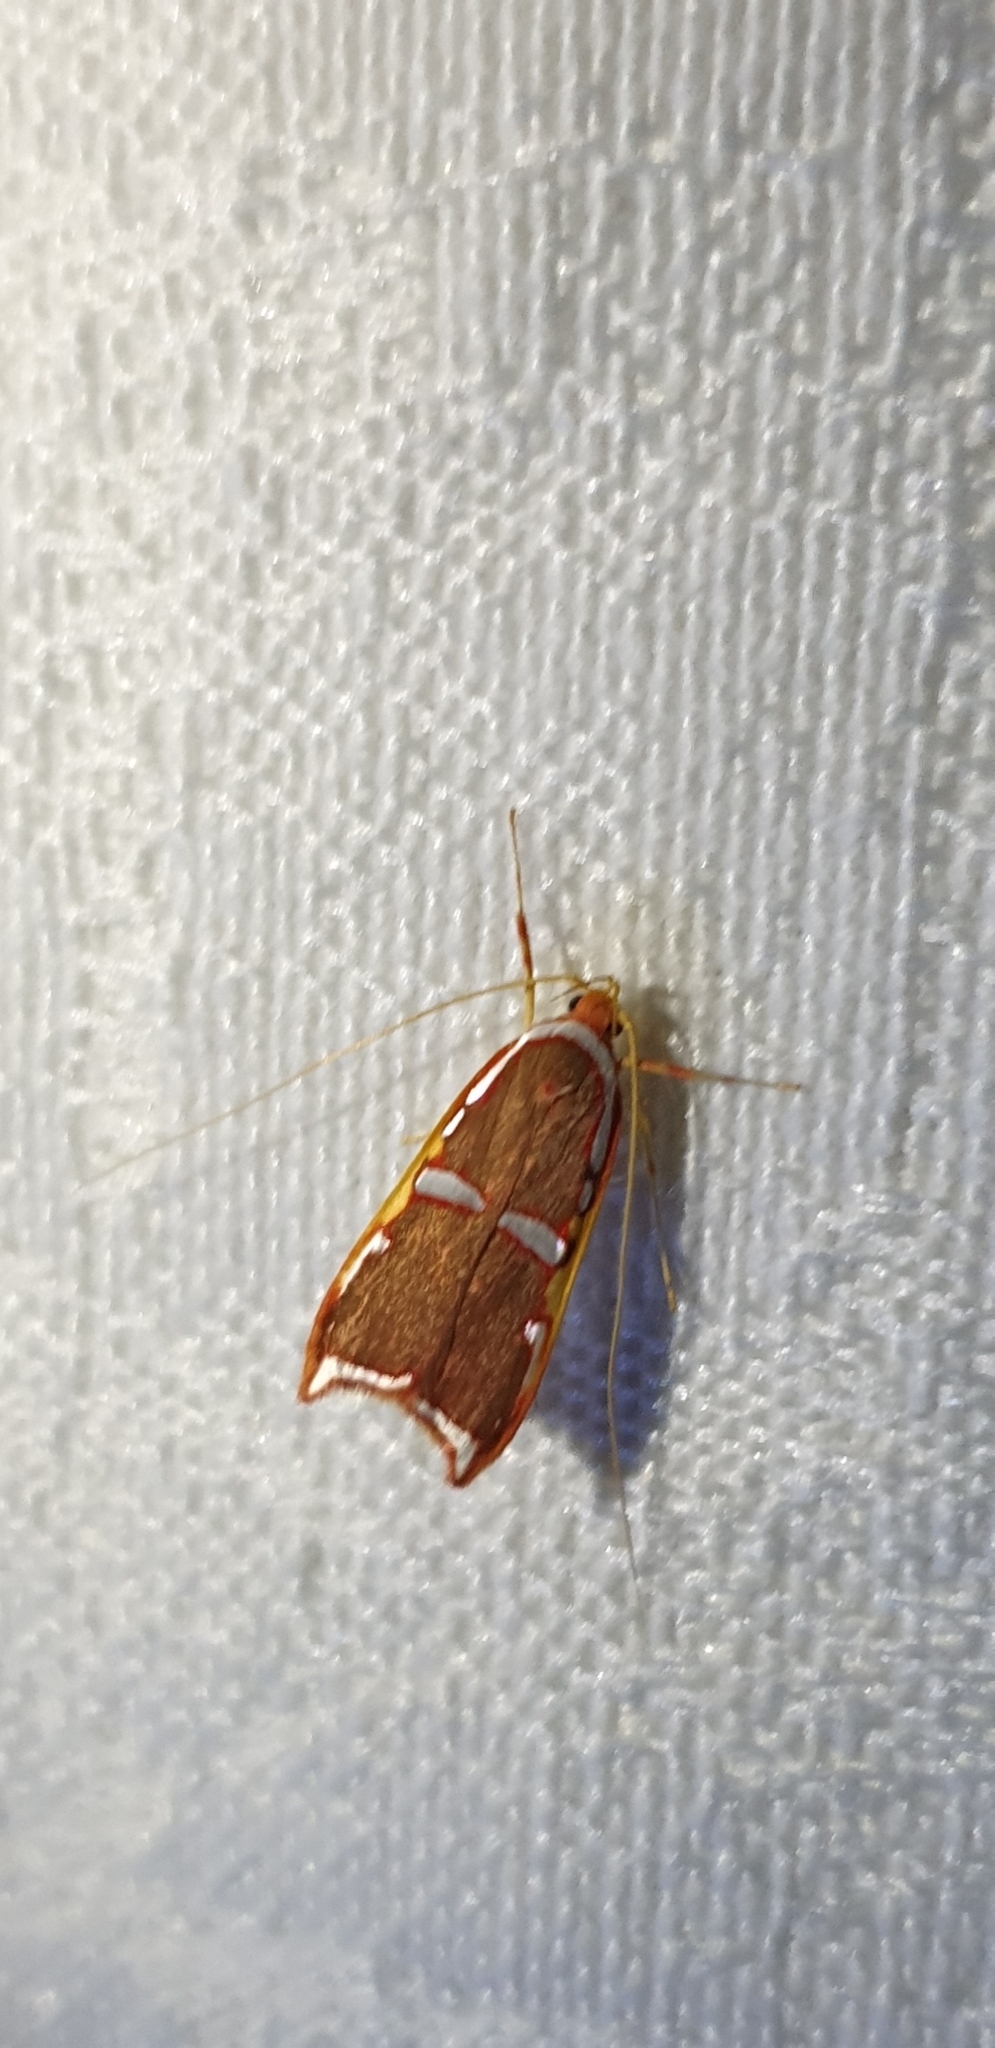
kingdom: Animalia
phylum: Arthropoda
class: Insecta
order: Lepidoptera
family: Depressariidae
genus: Barantola
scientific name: Barantola pulcherrima
